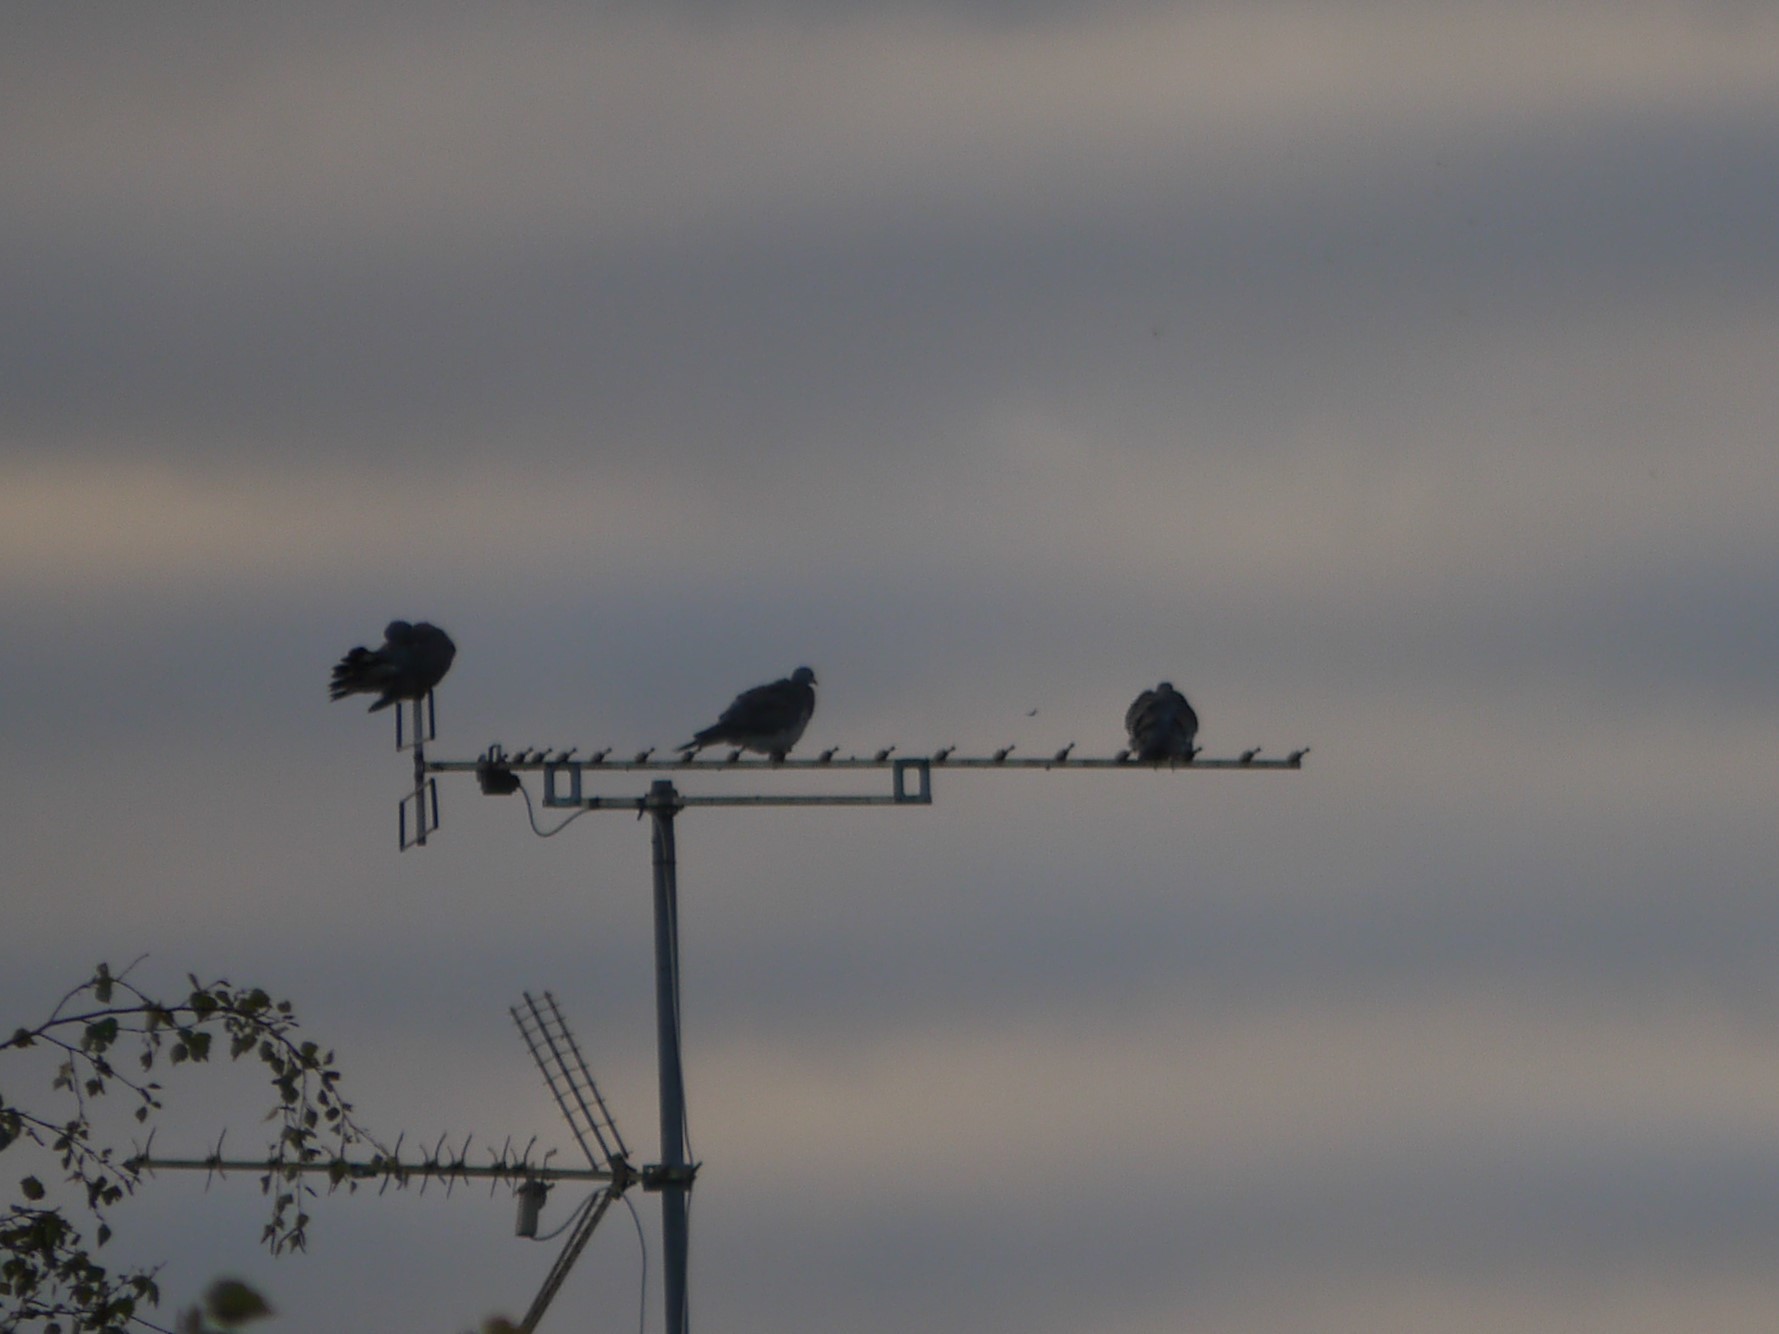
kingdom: Animalia
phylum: Chordata
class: Aves
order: Columbiformes
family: Columbidae
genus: Columba
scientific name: Columba palumbus
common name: Common wood pigeon
